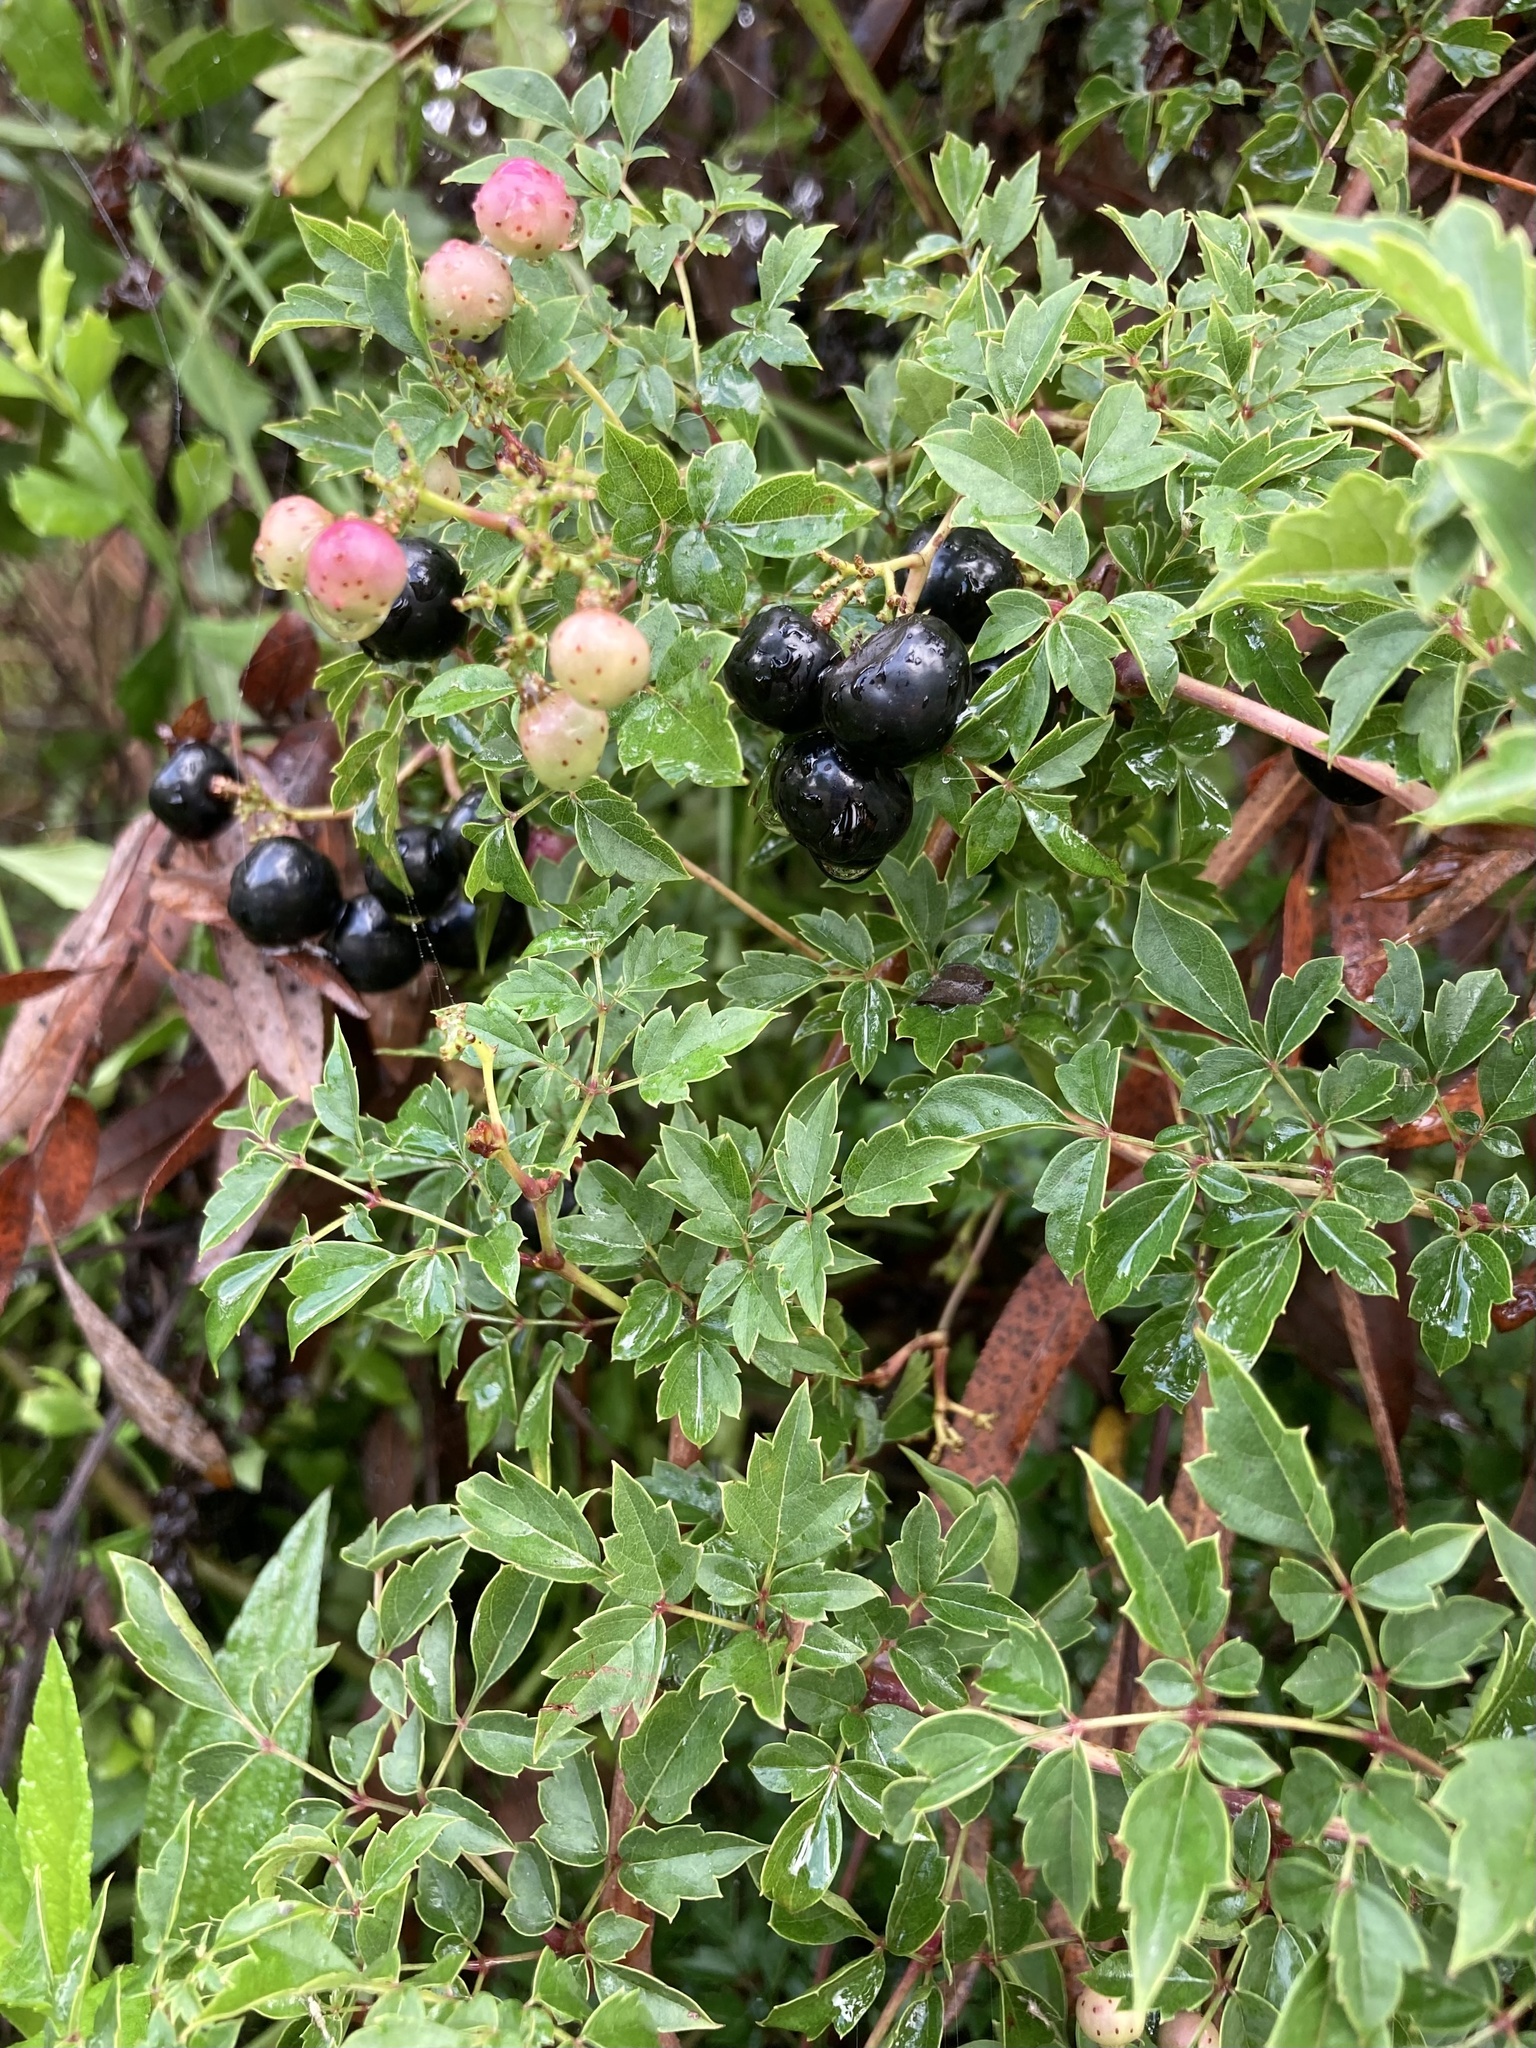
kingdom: Plantae
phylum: Tracheophyta
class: Magnoliopsida
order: Vitales
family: Vitaceae
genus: Nekemias
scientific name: Nekemias arborea
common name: Peppervine
